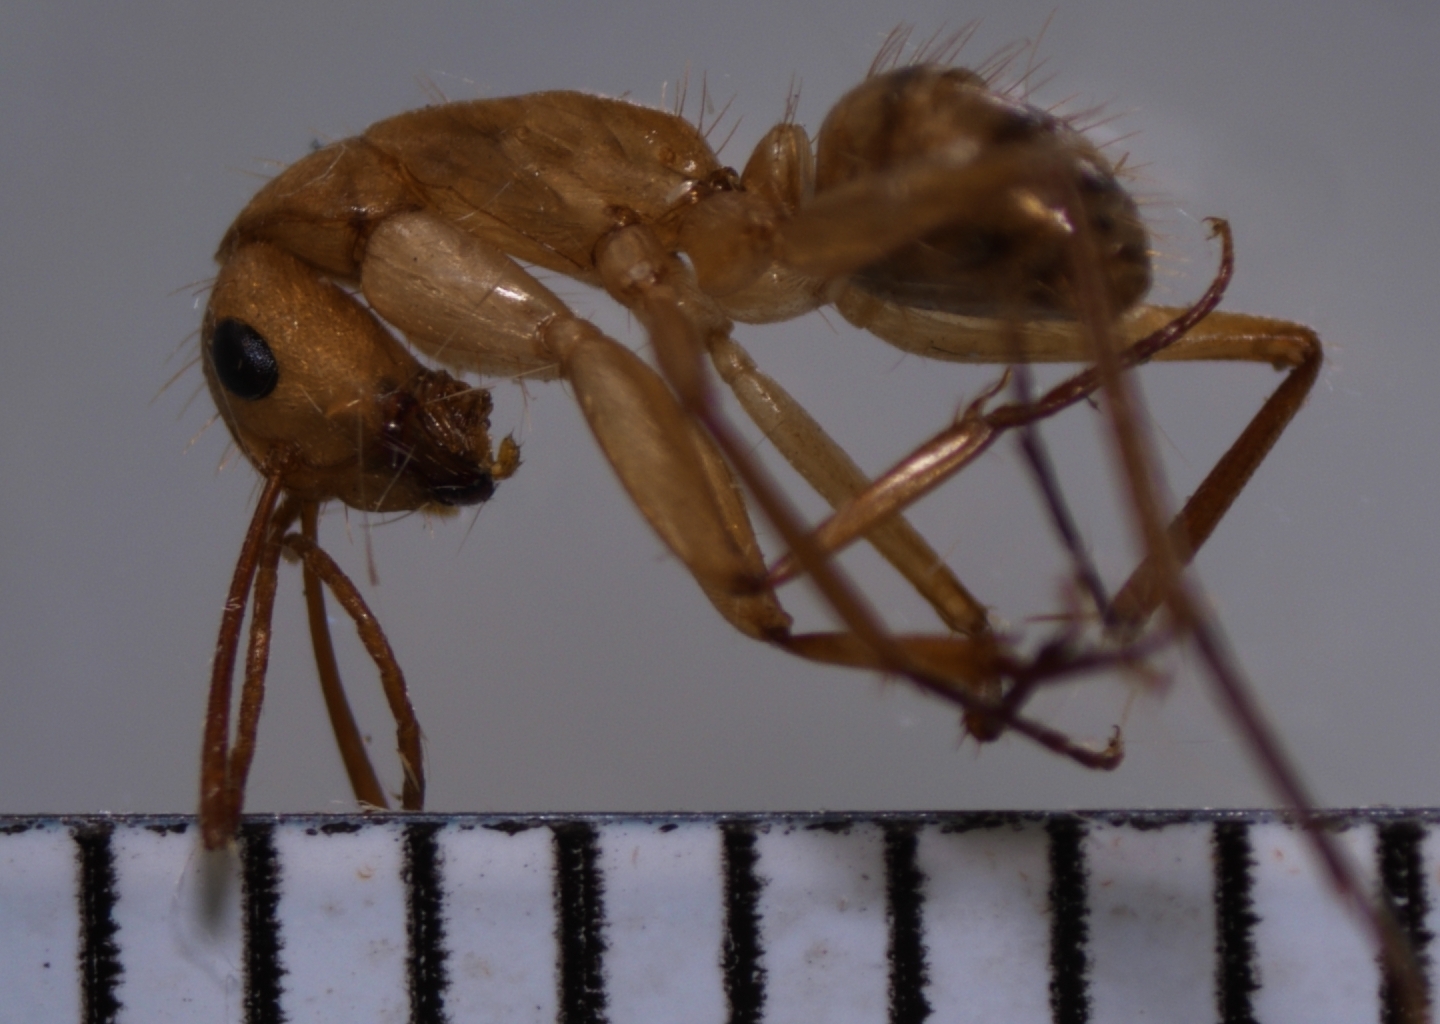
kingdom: Animalia
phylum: Arthropoda
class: Insecta
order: Hymenoptera
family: Formicidae
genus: Camponotus
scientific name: Camponotus chloroticus
